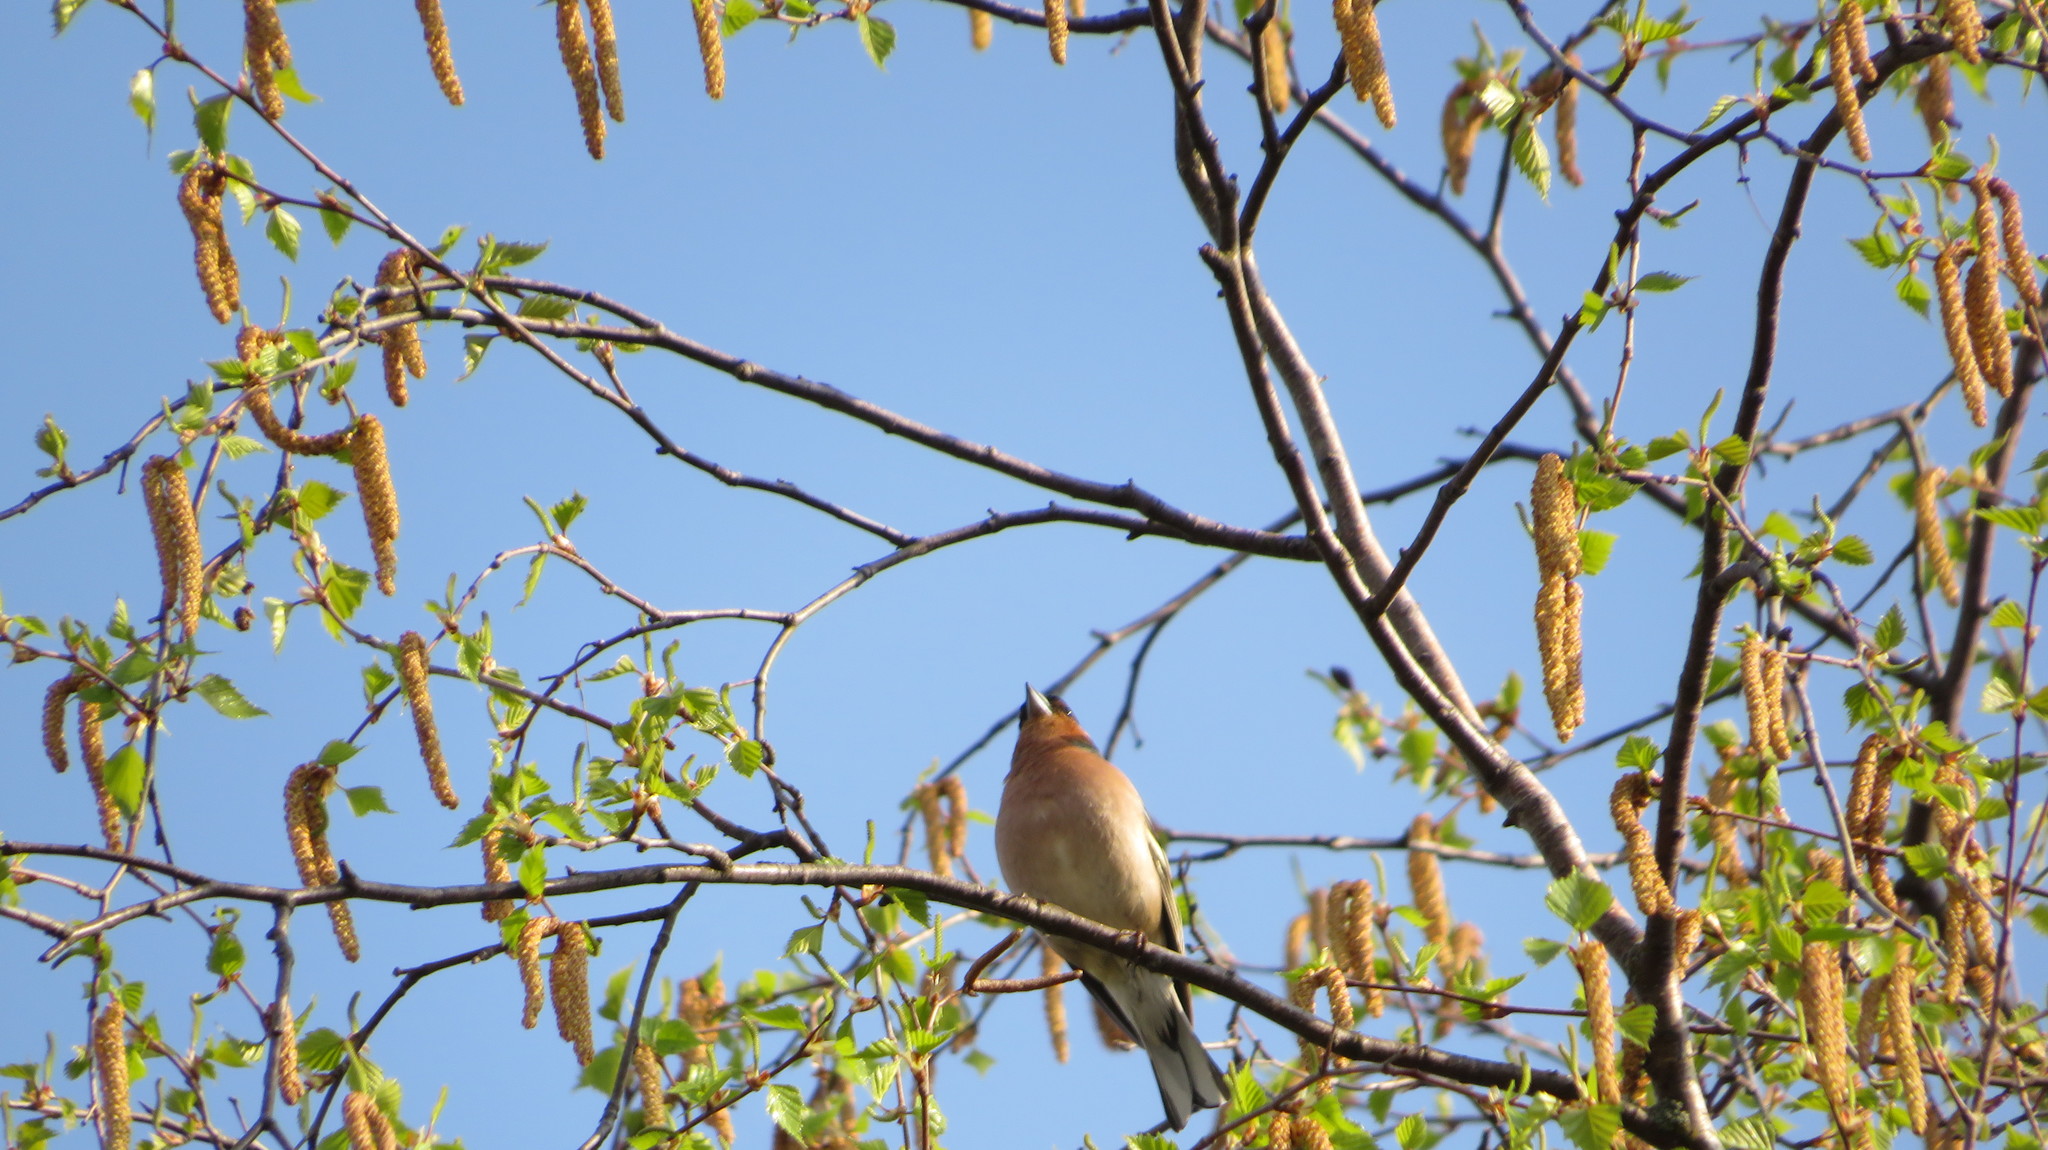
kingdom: Animalia
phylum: Chordata
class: Aves
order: Passeriformes
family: Fringillidae
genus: Fringilla
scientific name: Fringilla coelebs
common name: Common chaffinch
